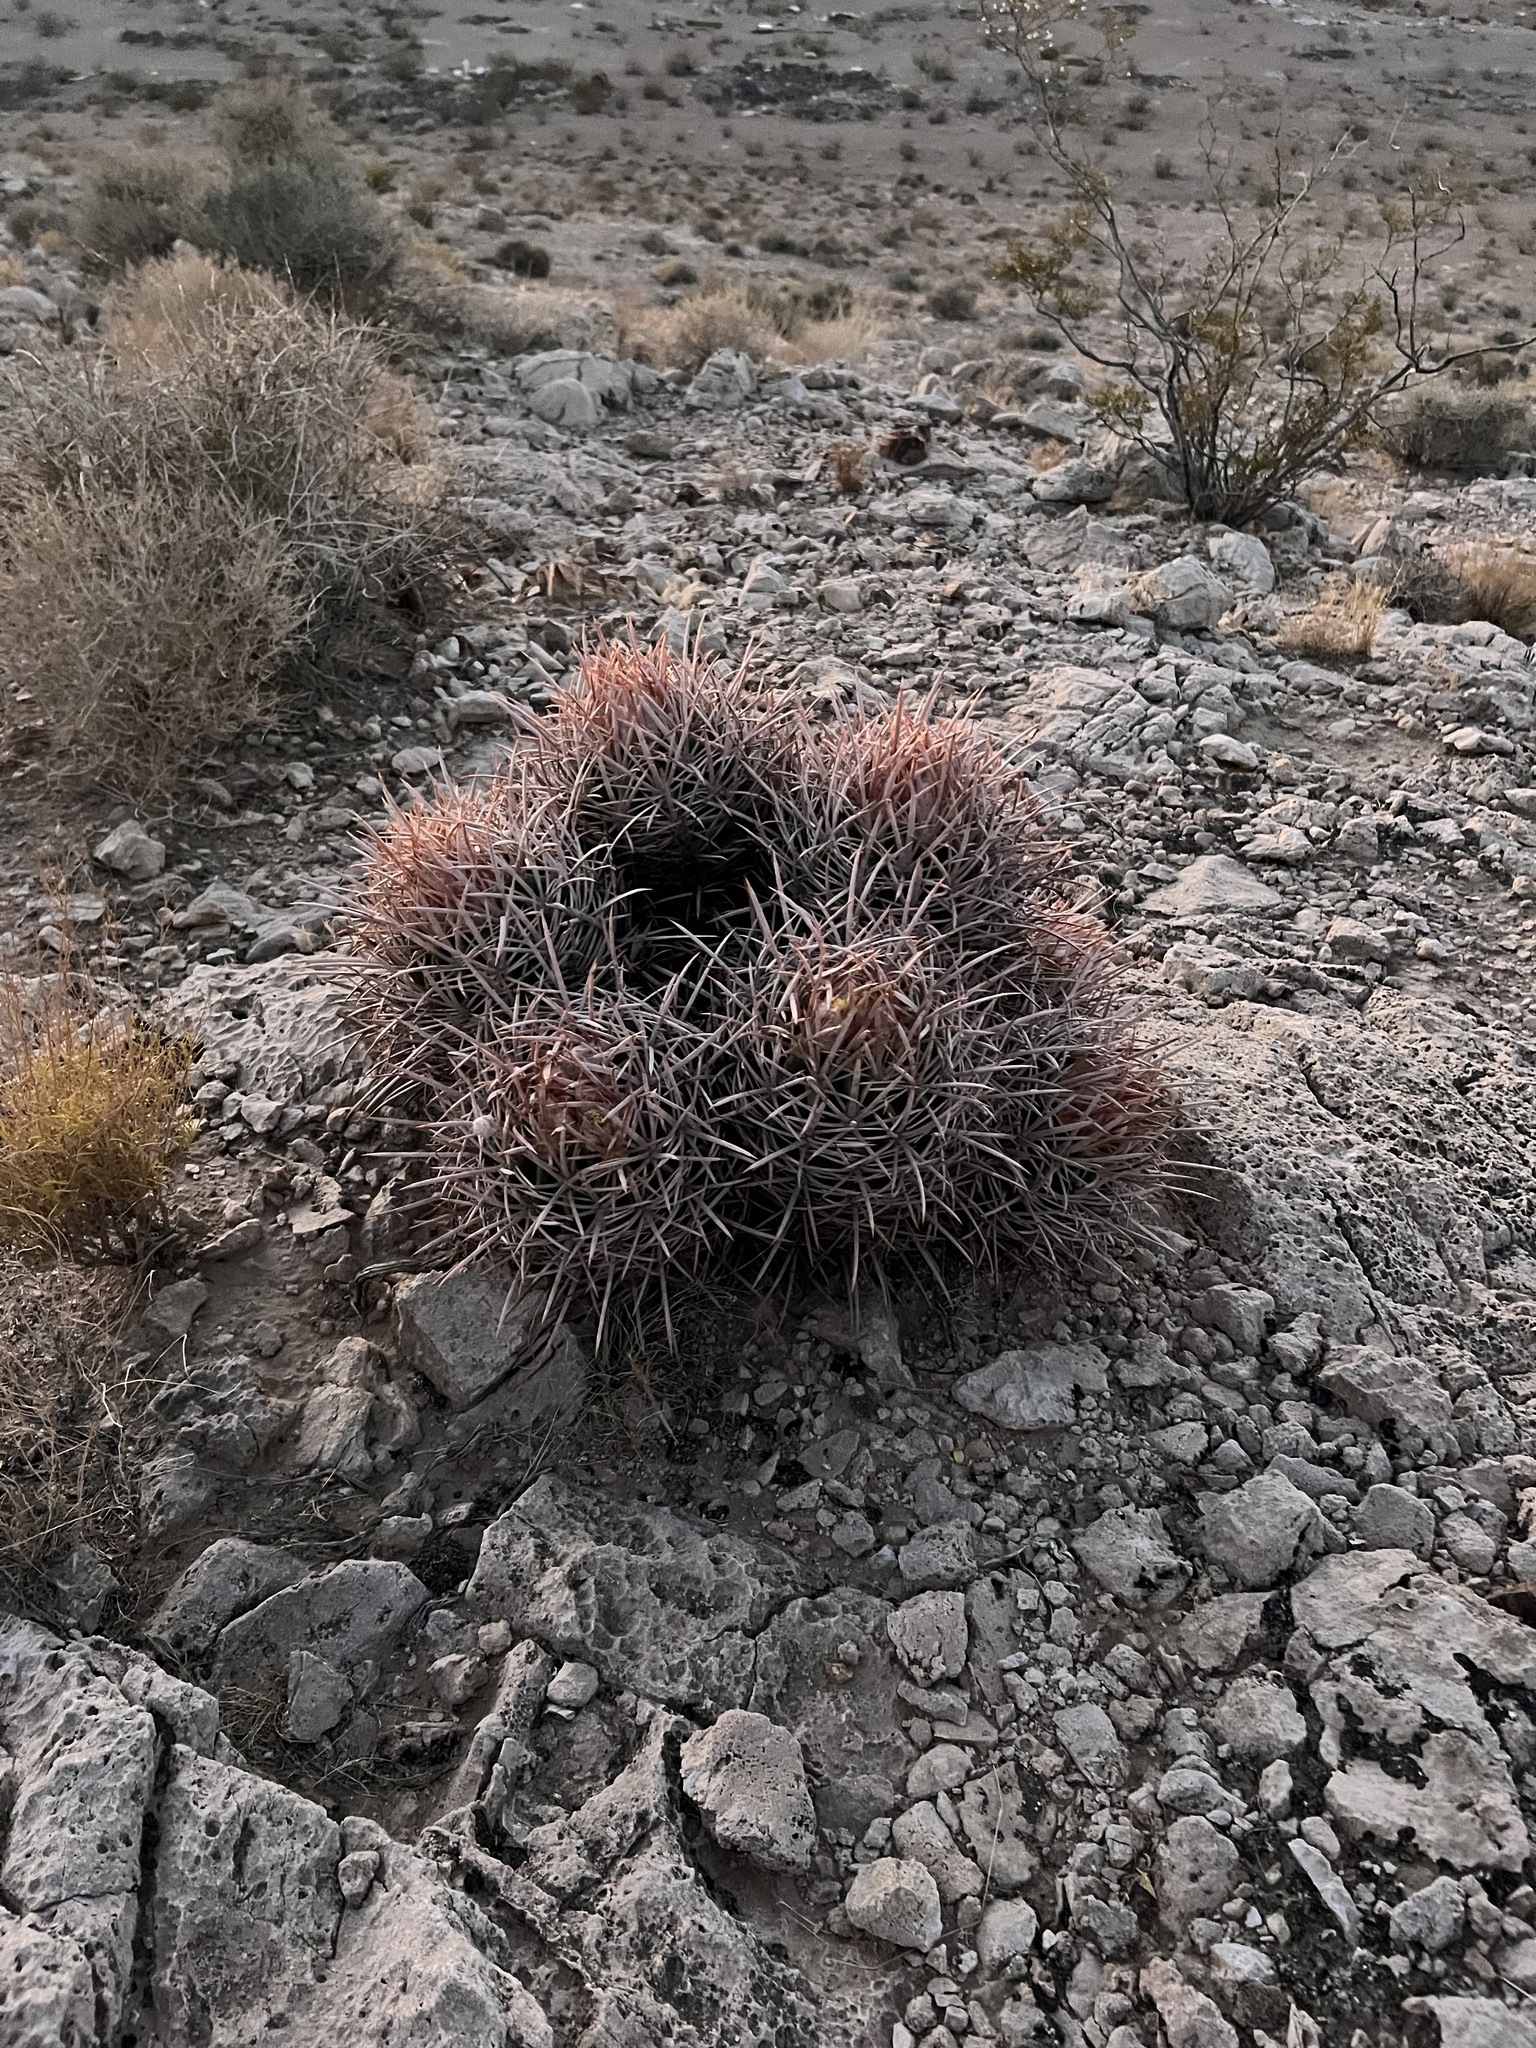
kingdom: Plantae
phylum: Tracheophyta
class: Magnoliopsida
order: Caryophyllales
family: Cactaceae
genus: Echinocactus
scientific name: Echinocactus polycephalus
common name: Cottontop cactus
